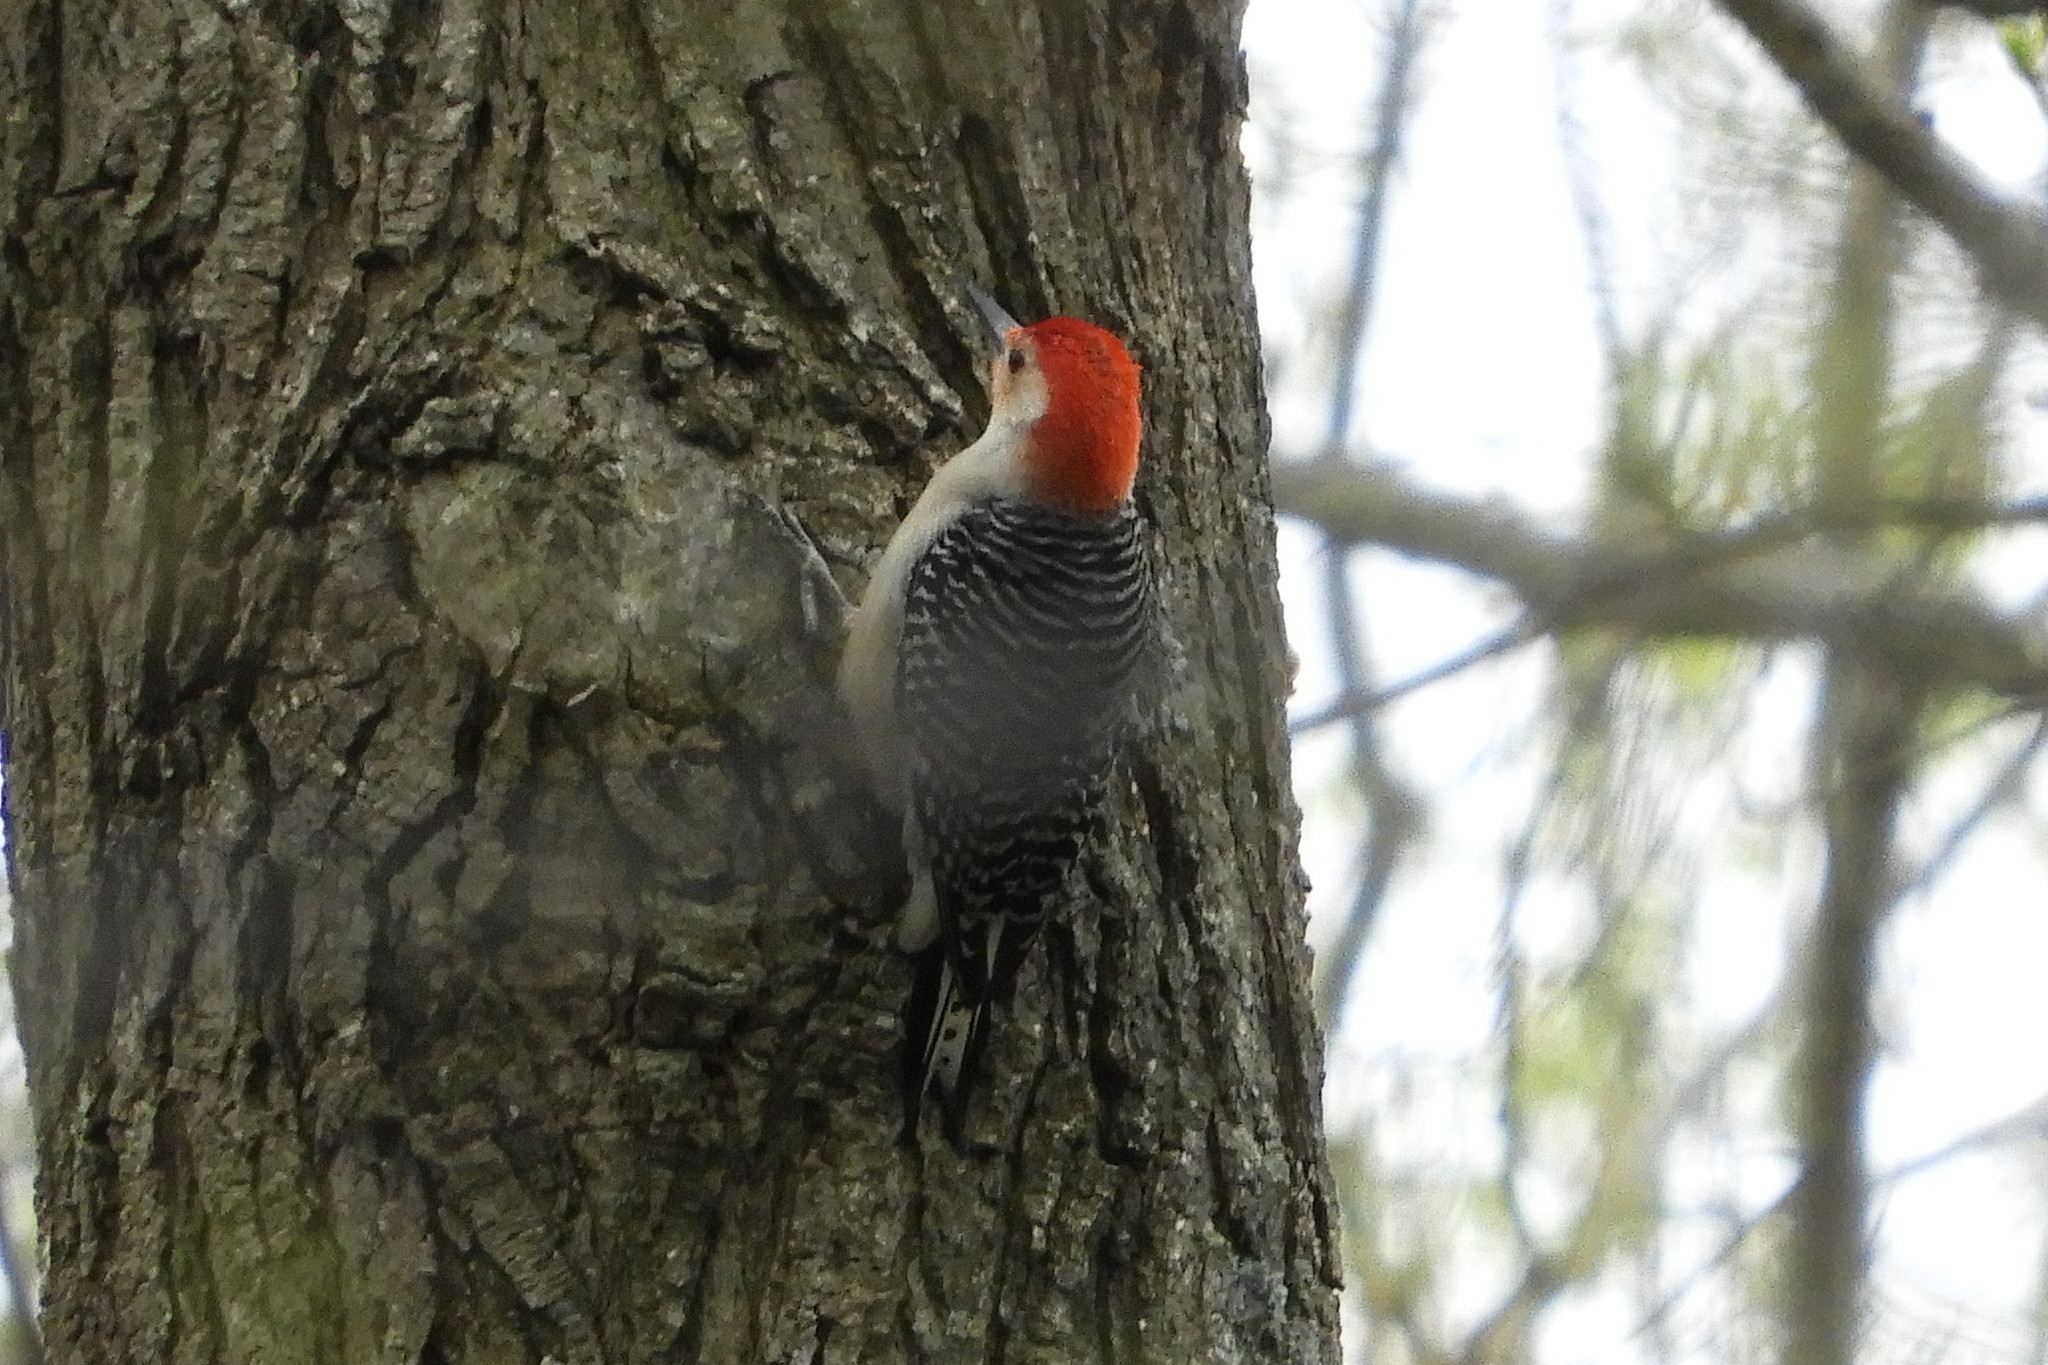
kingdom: Animalia
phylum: Chordata
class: Aves
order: Piciformes
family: Picidae
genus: Melanerpes
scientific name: Melanerpes carolinus
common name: Red-bellied woodpecker
